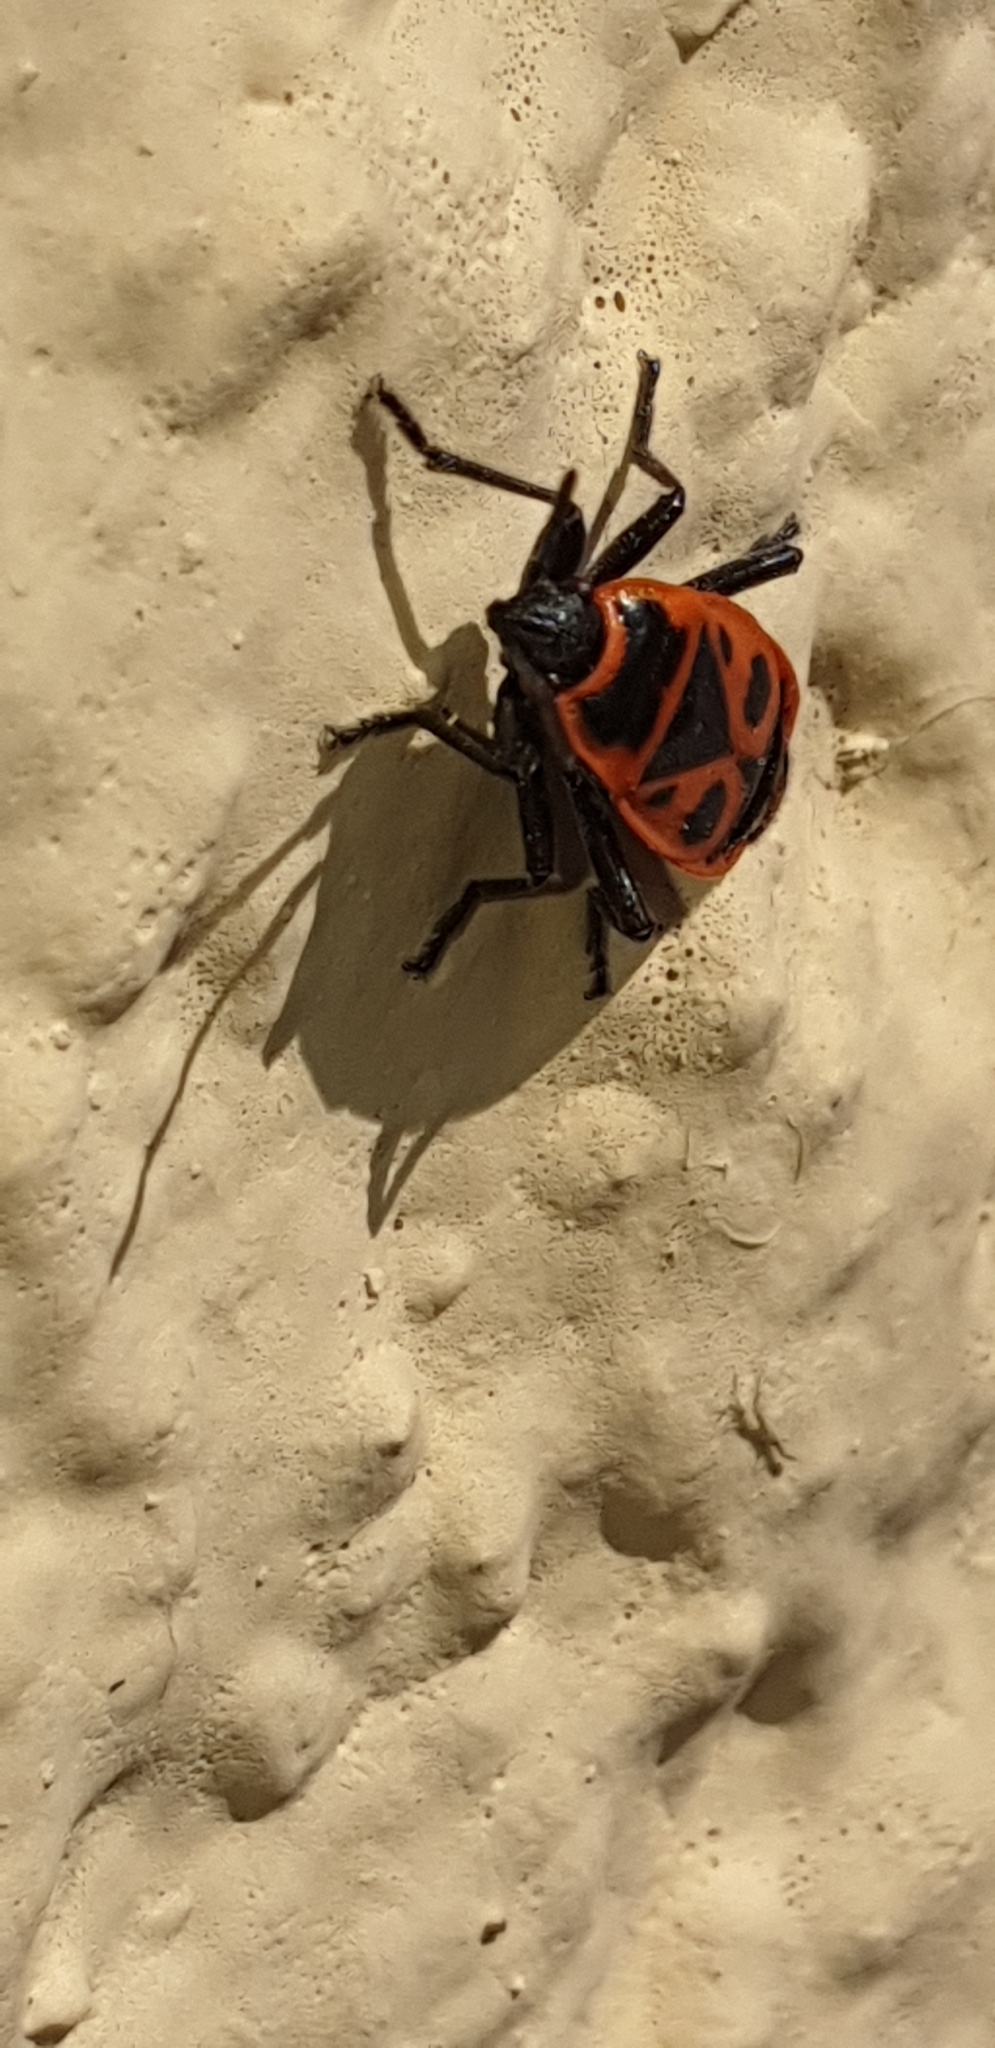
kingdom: Animalia
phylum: Arthropoda
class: Insecta
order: Hemiptera
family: Pyrrhocoridae
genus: Pyrrhocoris
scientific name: Pyrrhocoris apterus
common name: Firebug
